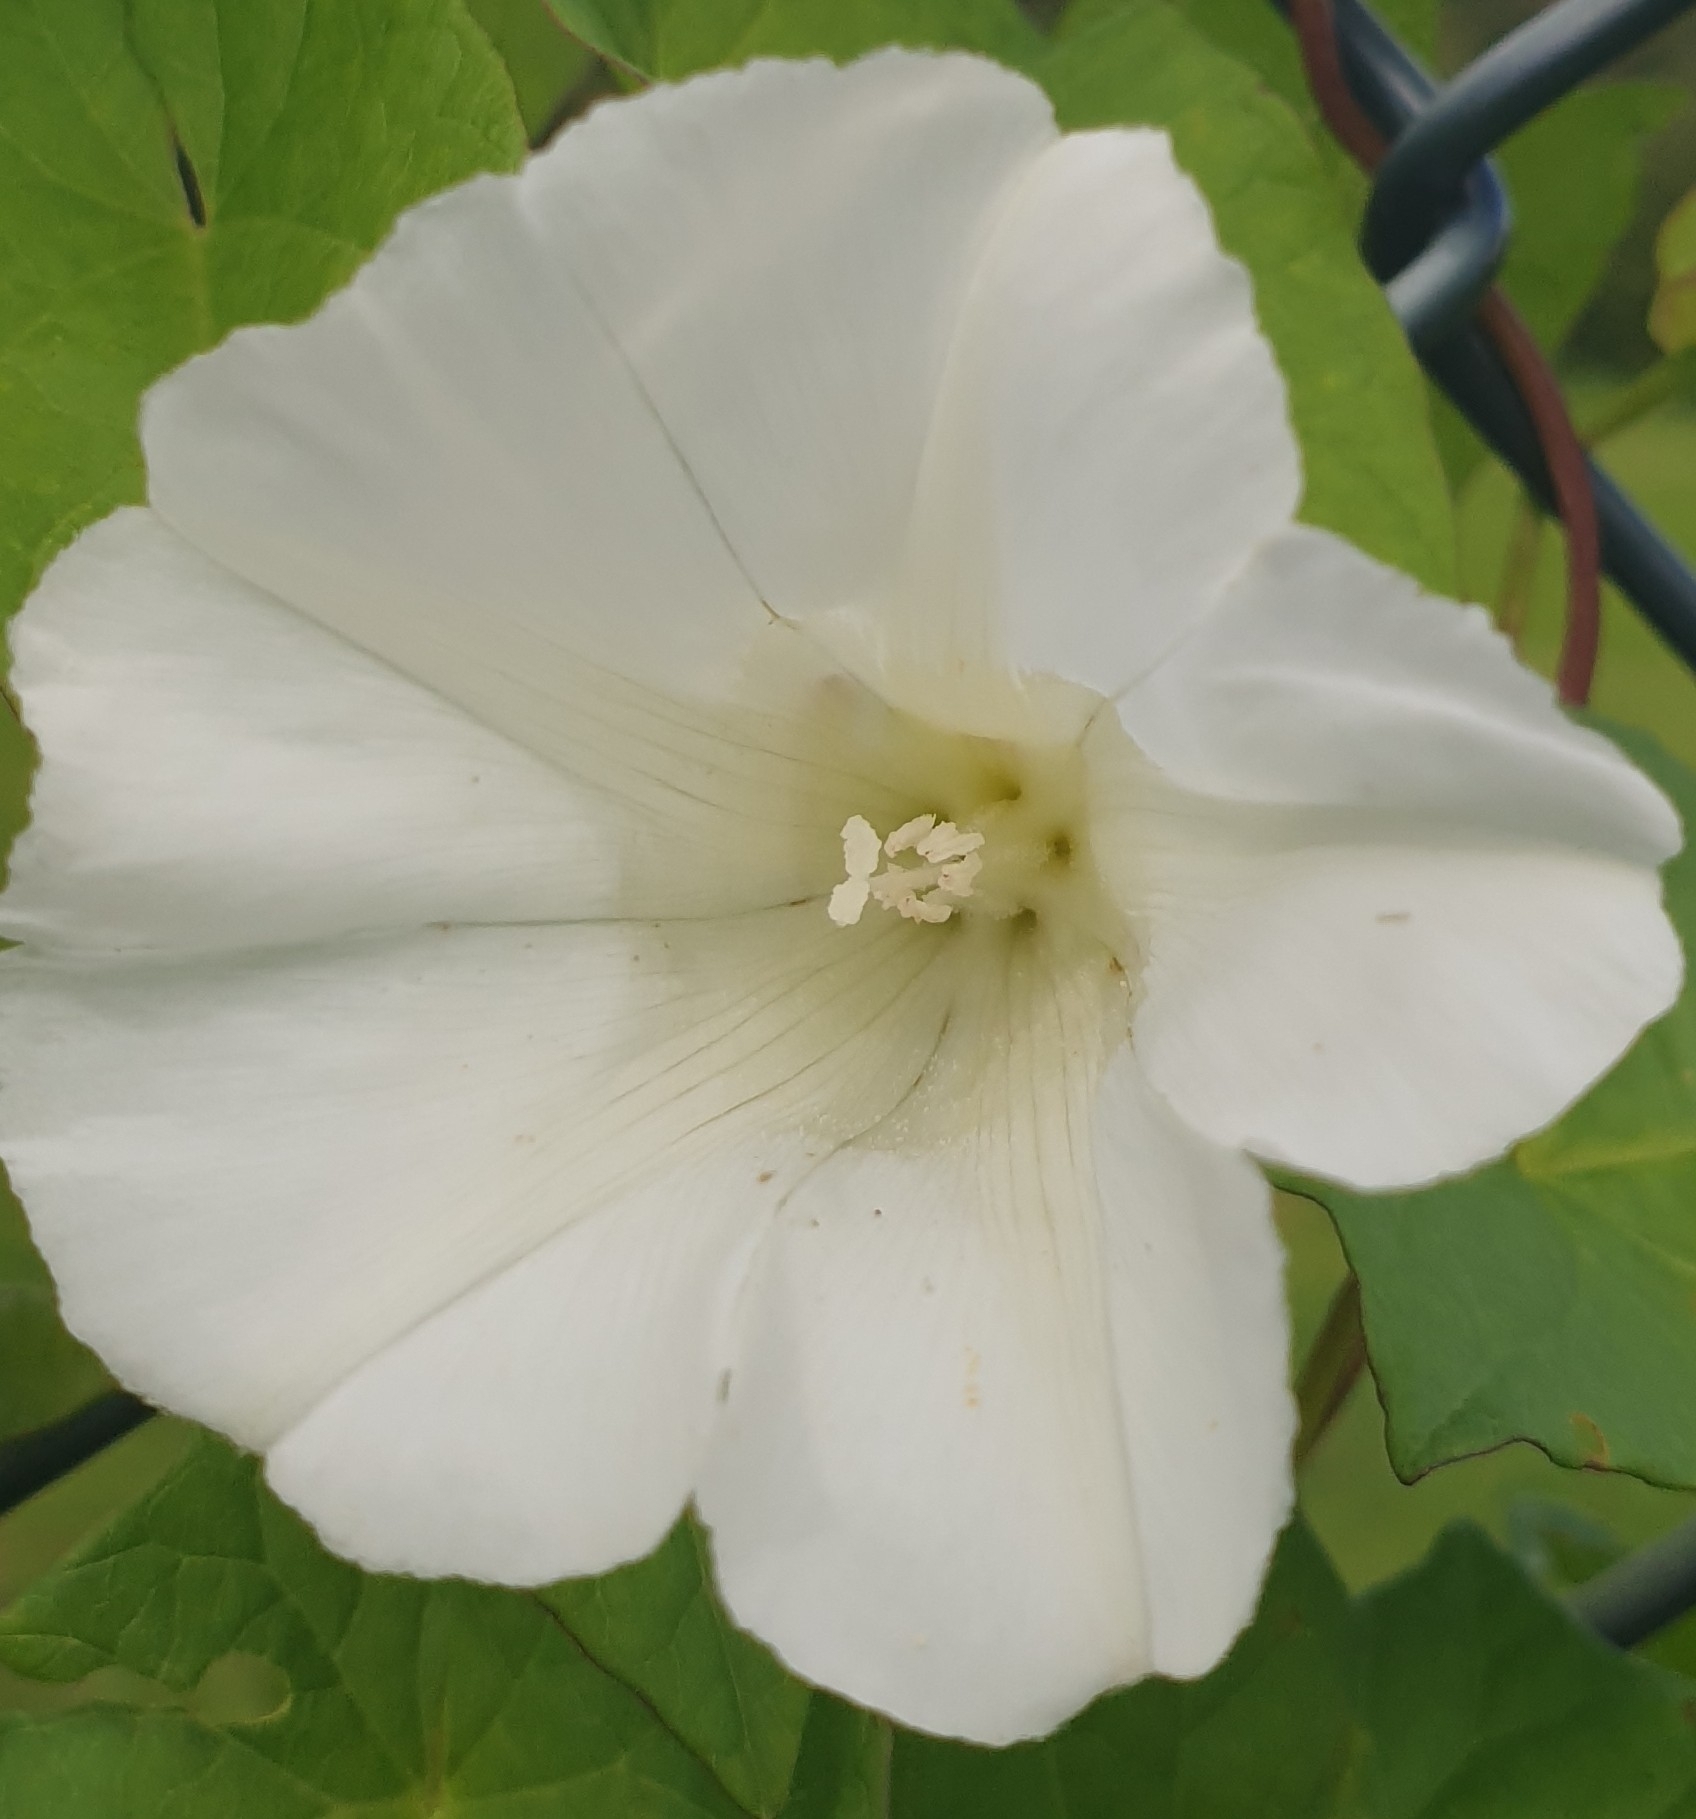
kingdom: Plantae
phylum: Tracheophyta
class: Magnoliopsida
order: Solanales
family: Convolvulaceae
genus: Calystegia
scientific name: Calystegia sepium
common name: Hedge bindweed
